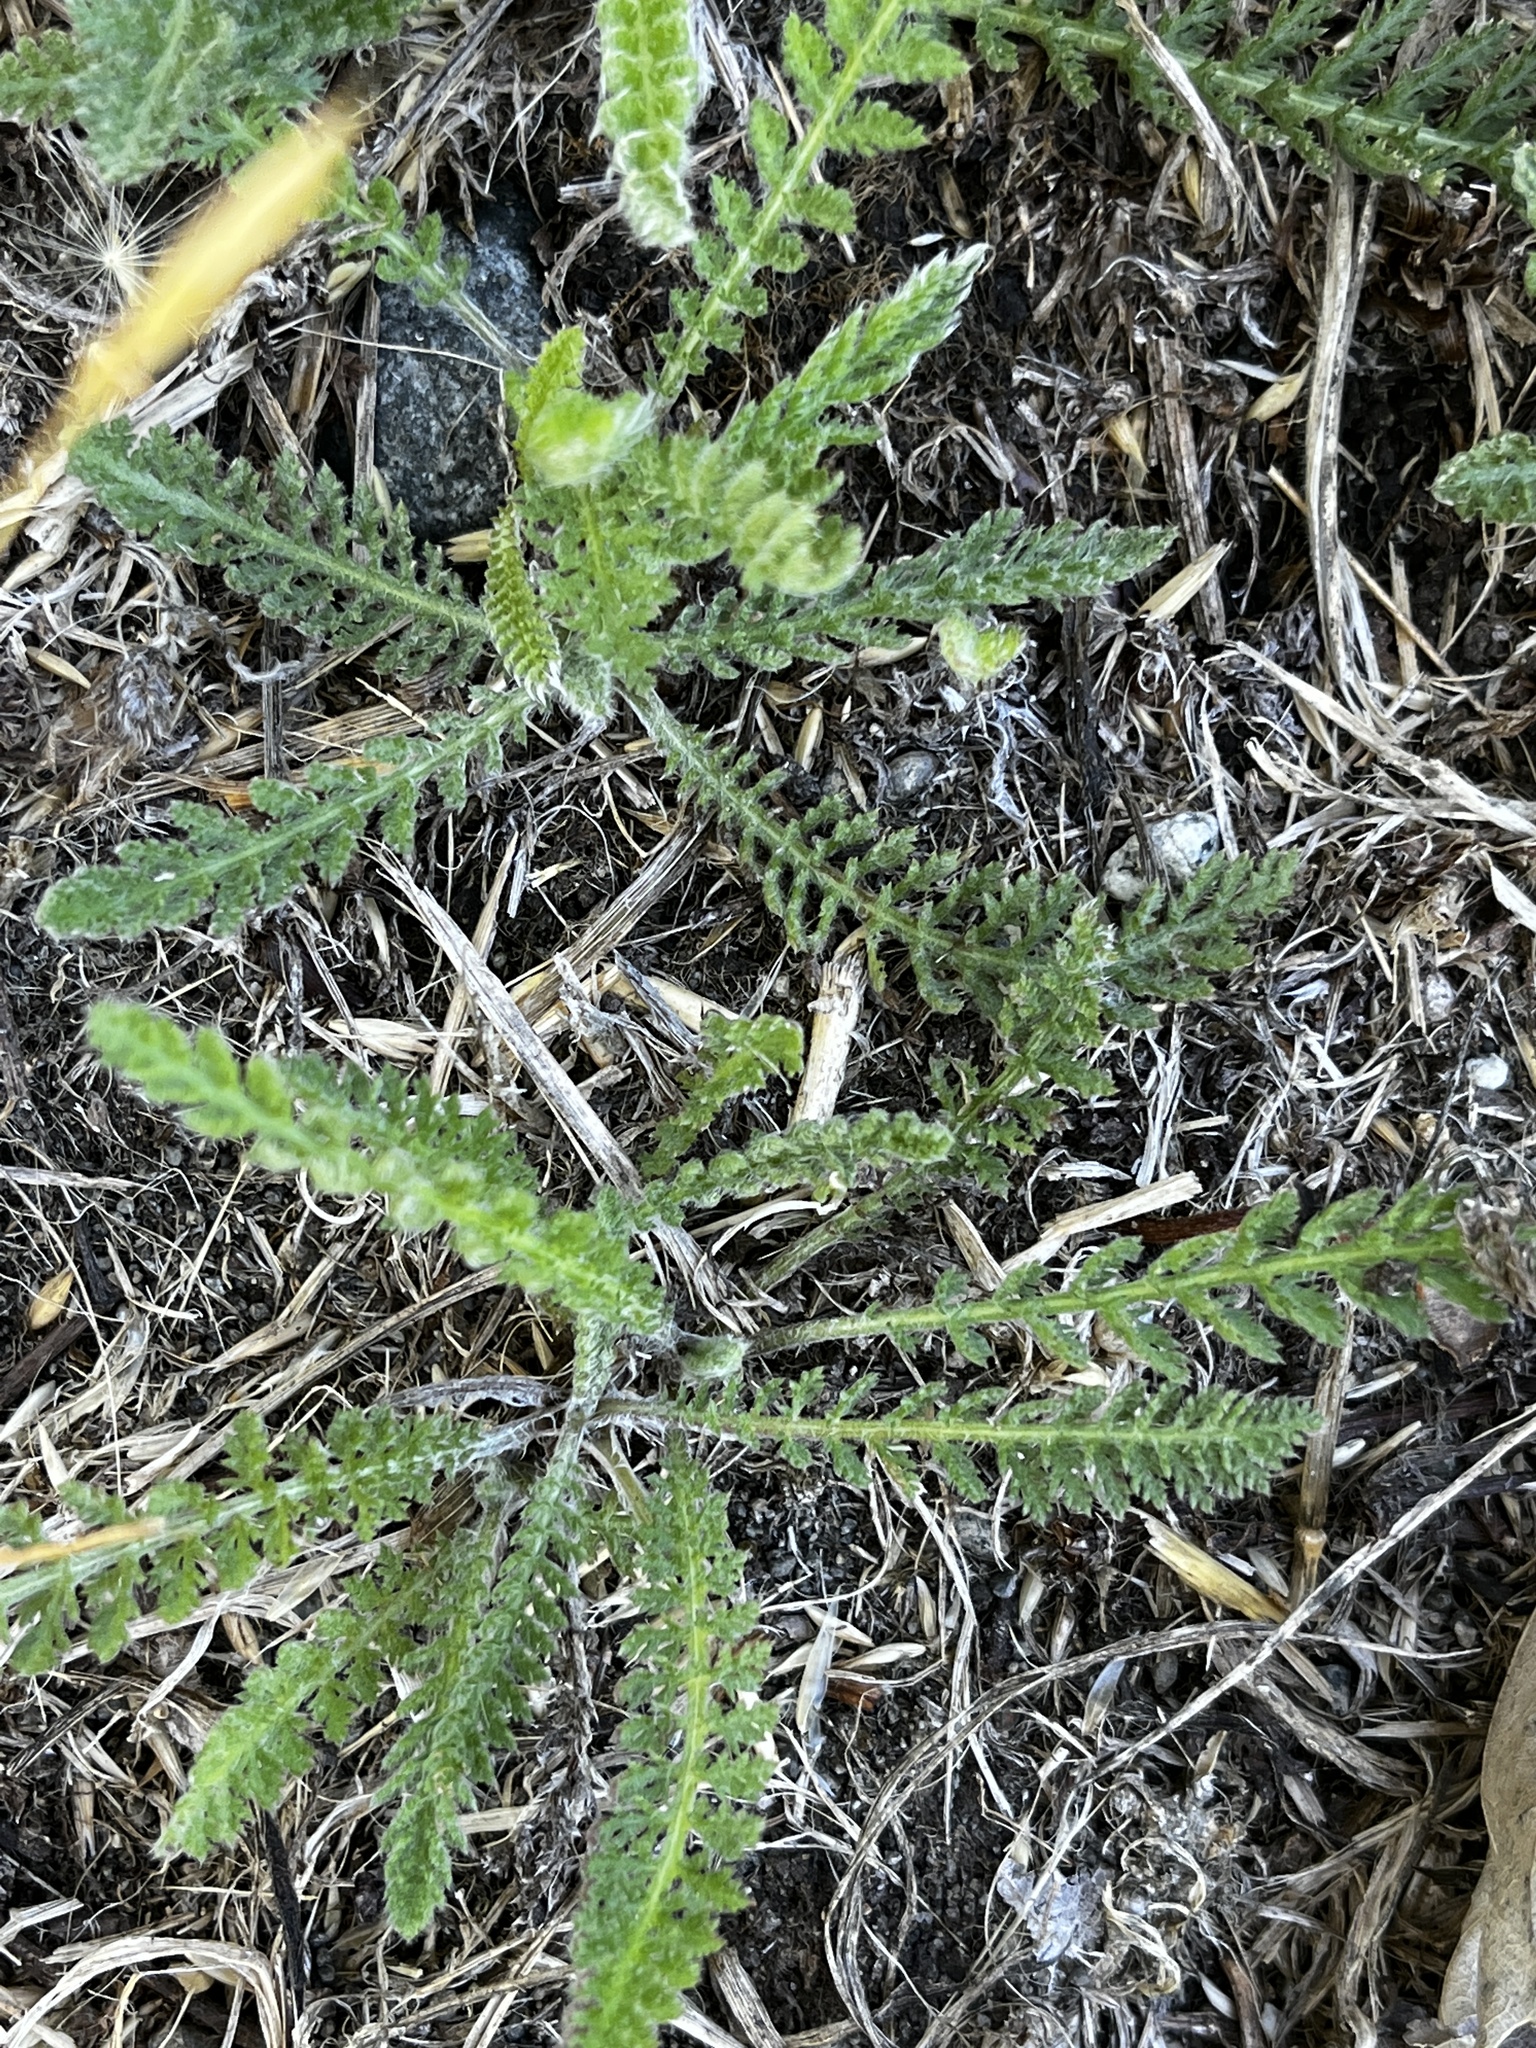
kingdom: Plantae
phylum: Tracheophyta
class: Magnoliopsida
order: Asterales
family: Asteraceae
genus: Achillea
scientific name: Achillea millefolium
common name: Yarrow
